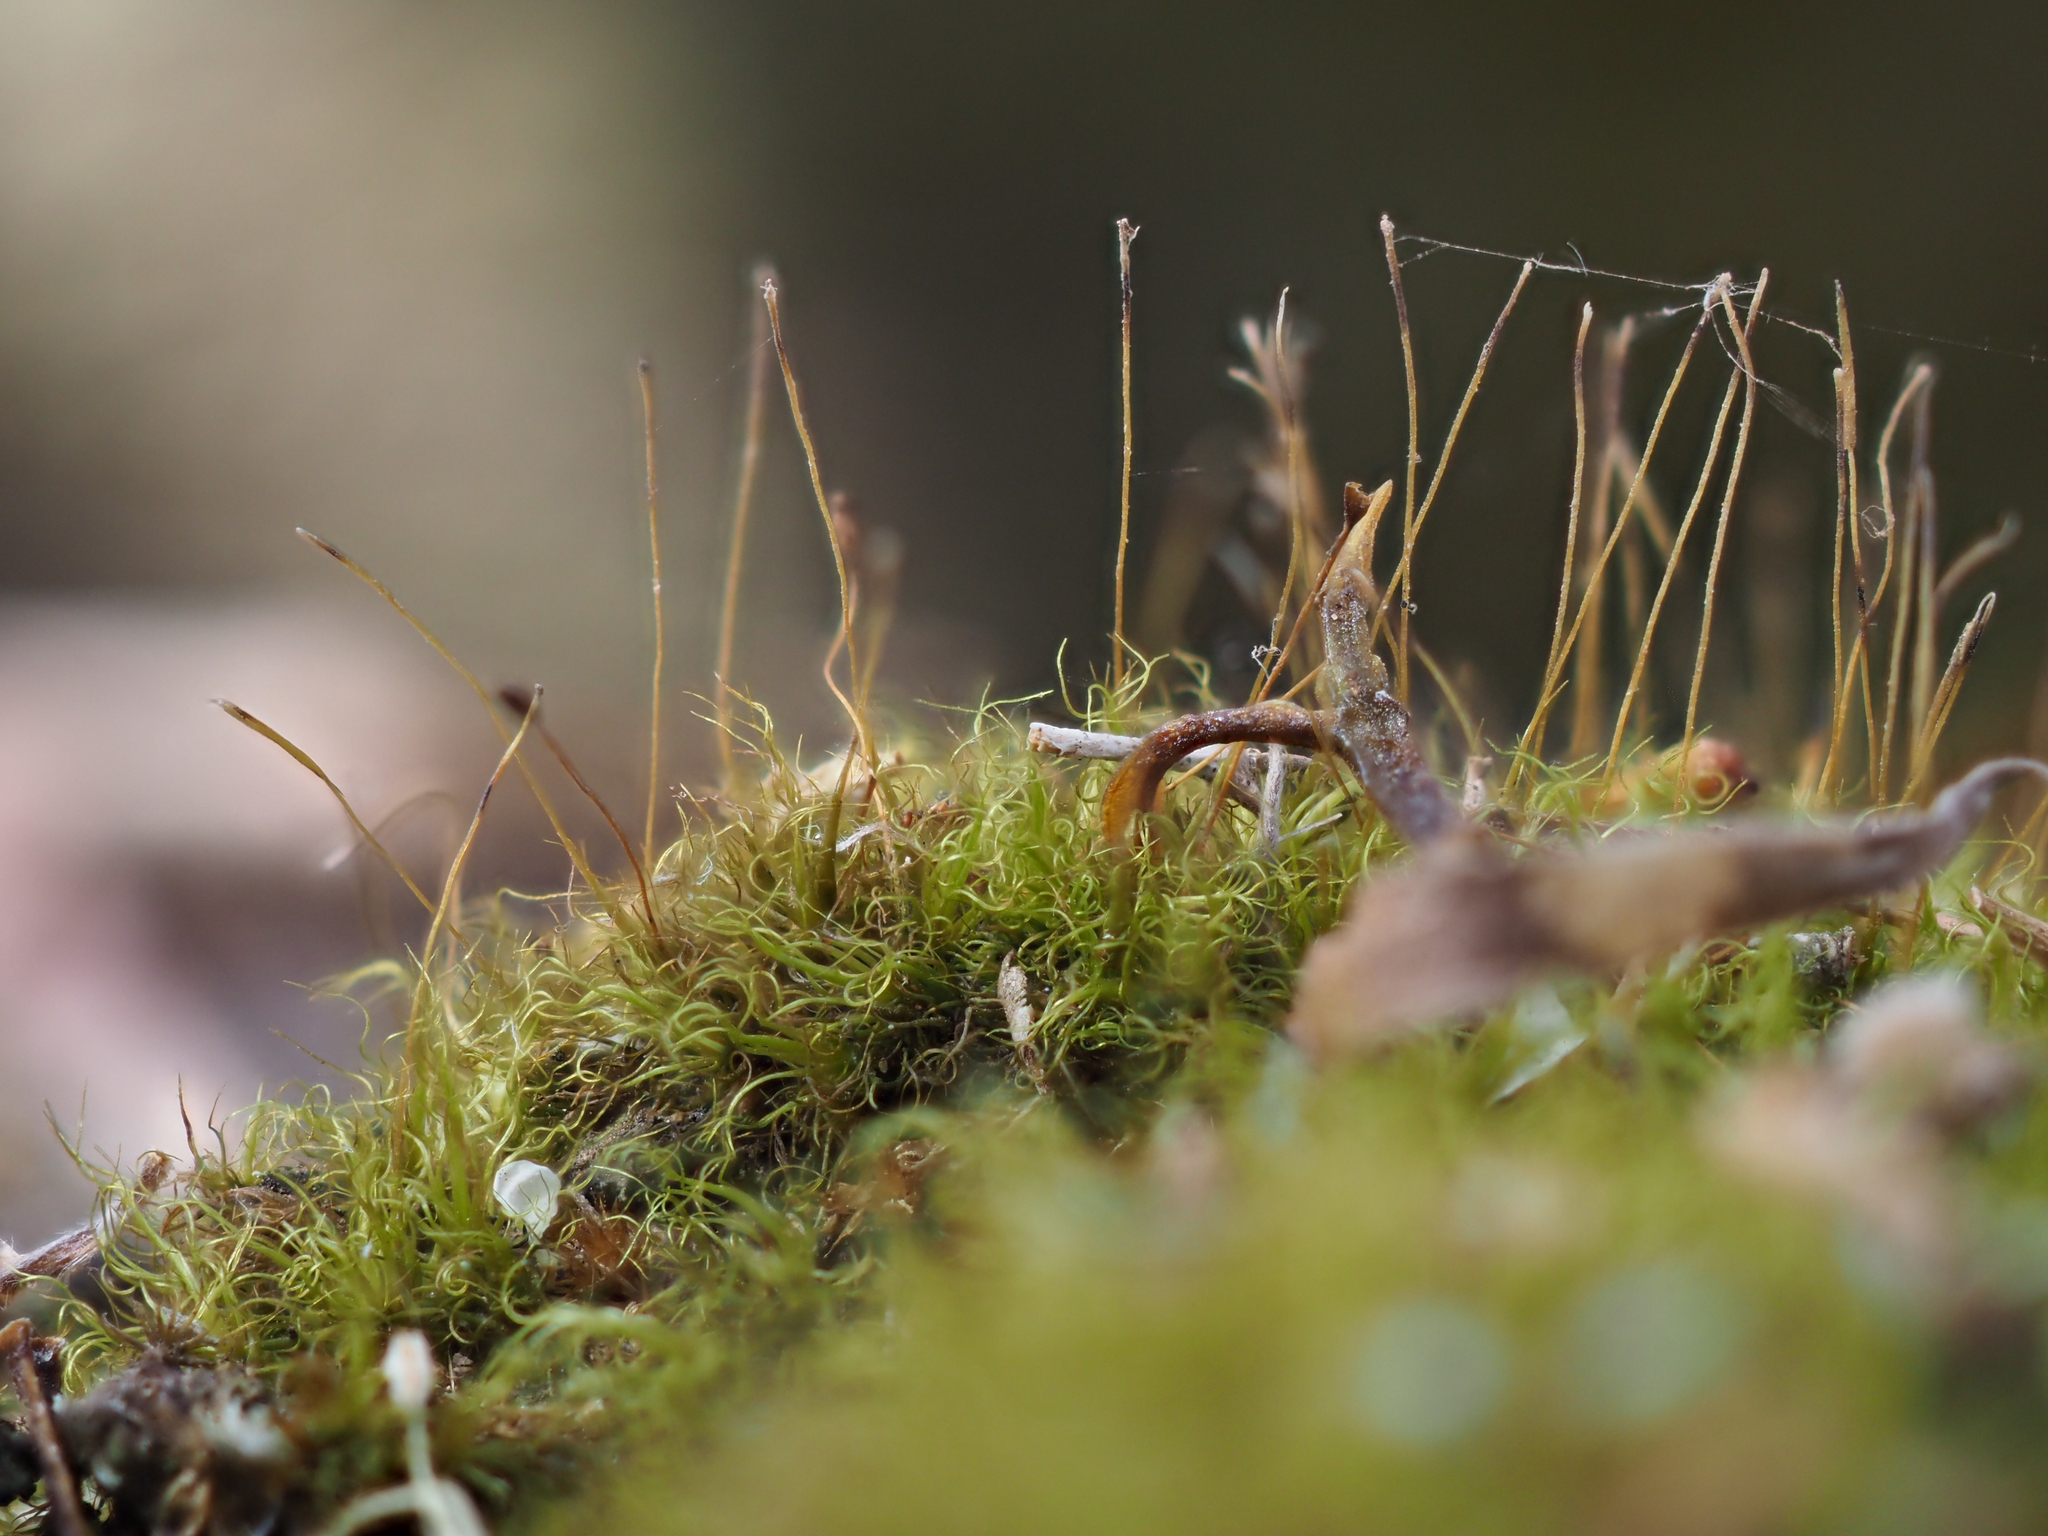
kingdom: Plantae
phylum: Bryophyta
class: Bryopsida
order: Dicranales
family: Dicranaceae
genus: Dicranoloma
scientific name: Dicranoloma diaphanoneuron
